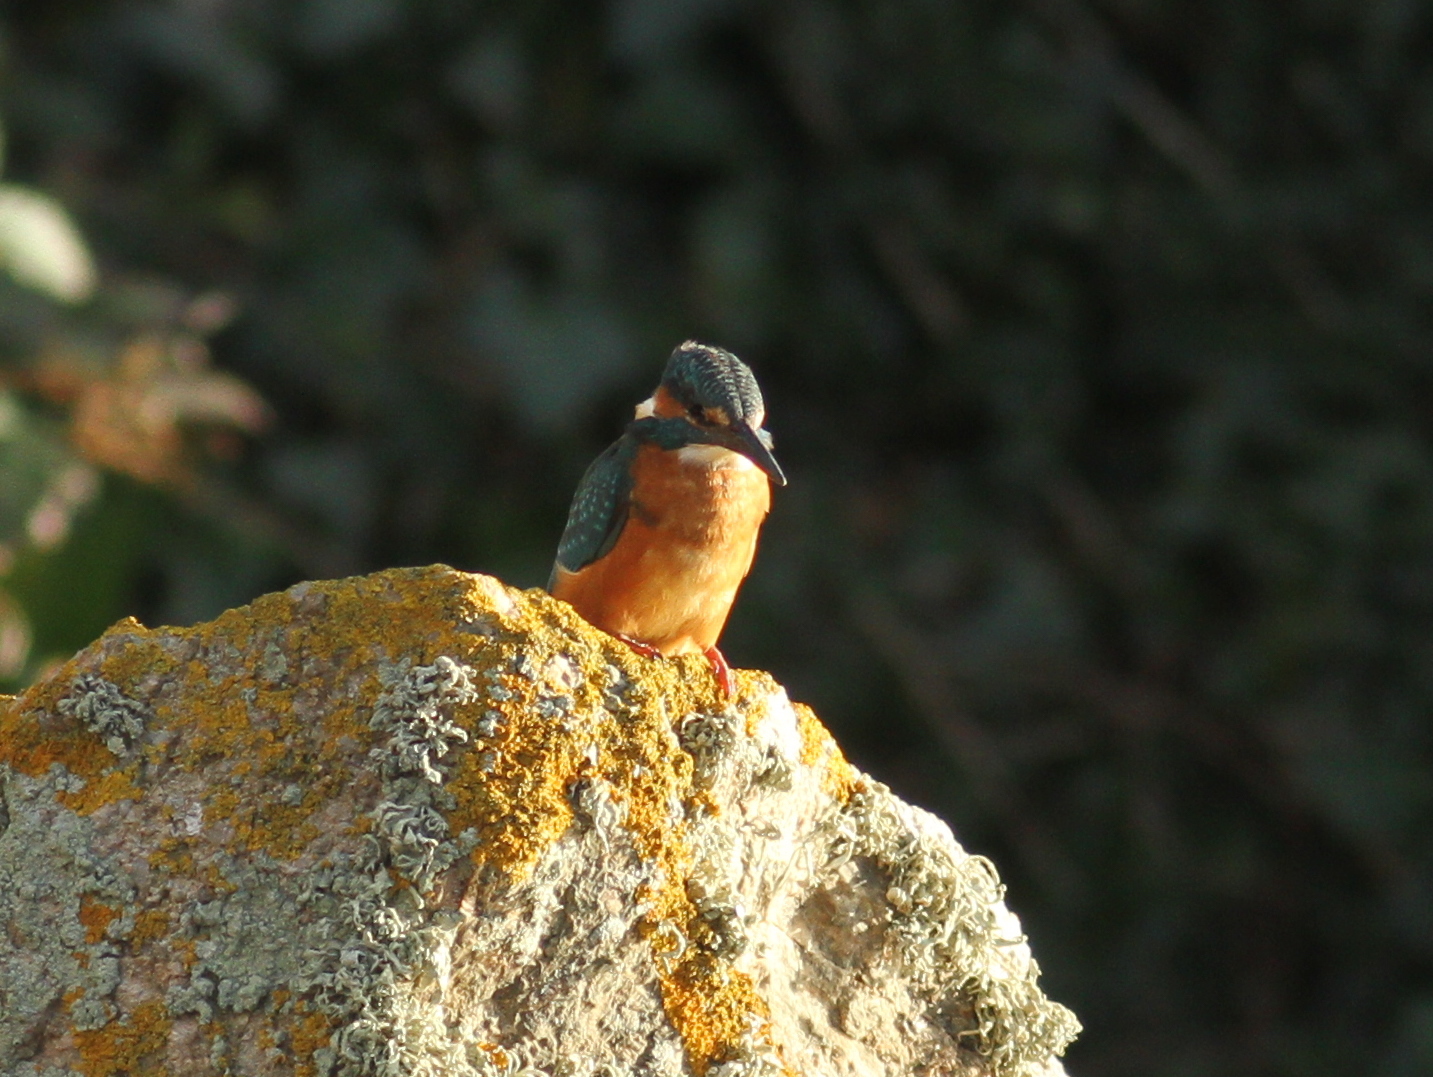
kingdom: Animalia
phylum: Chordata
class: Aves
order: Coraciiformes
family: Alcedinidae
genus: Alcedo
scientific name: Alcedo atthis
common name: Common kingfisher
